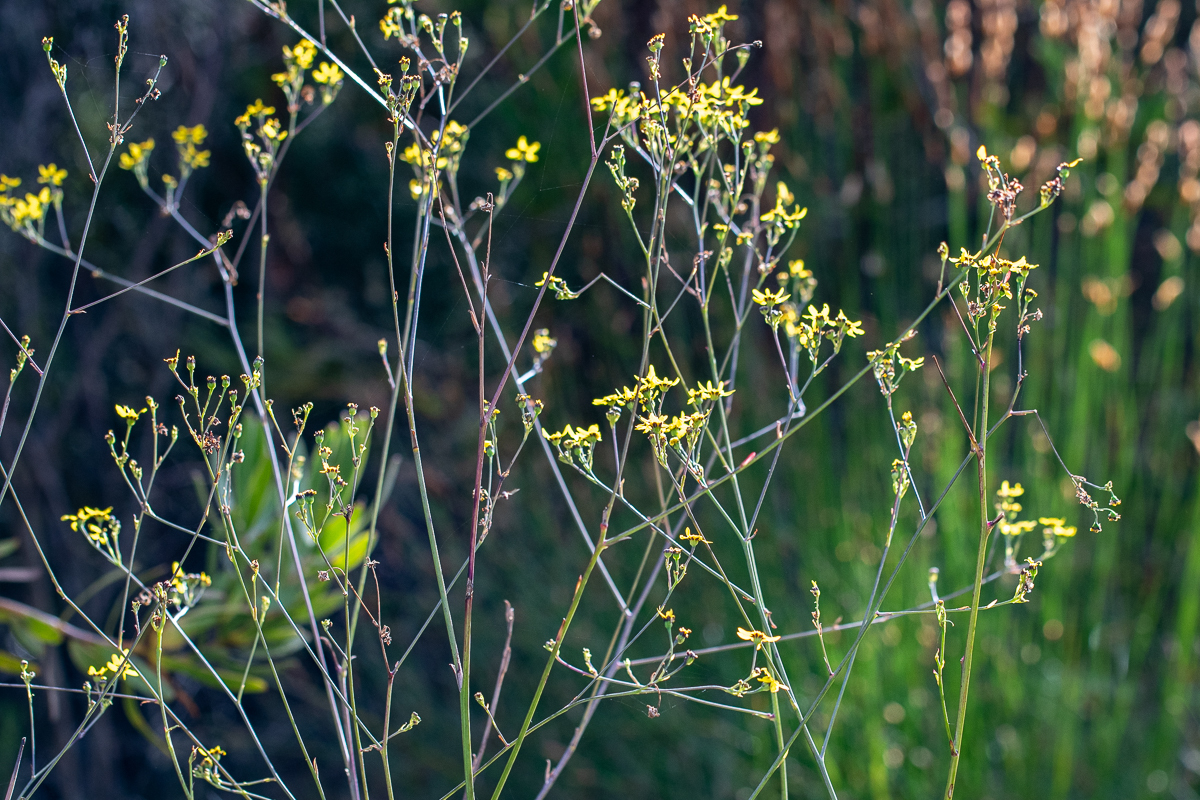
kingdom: Plantae
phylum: Tracheophyta
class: Magnoliopsida
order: Asterales
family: Asteraceae
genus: Othonna
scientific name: Othonna quinquedentata
